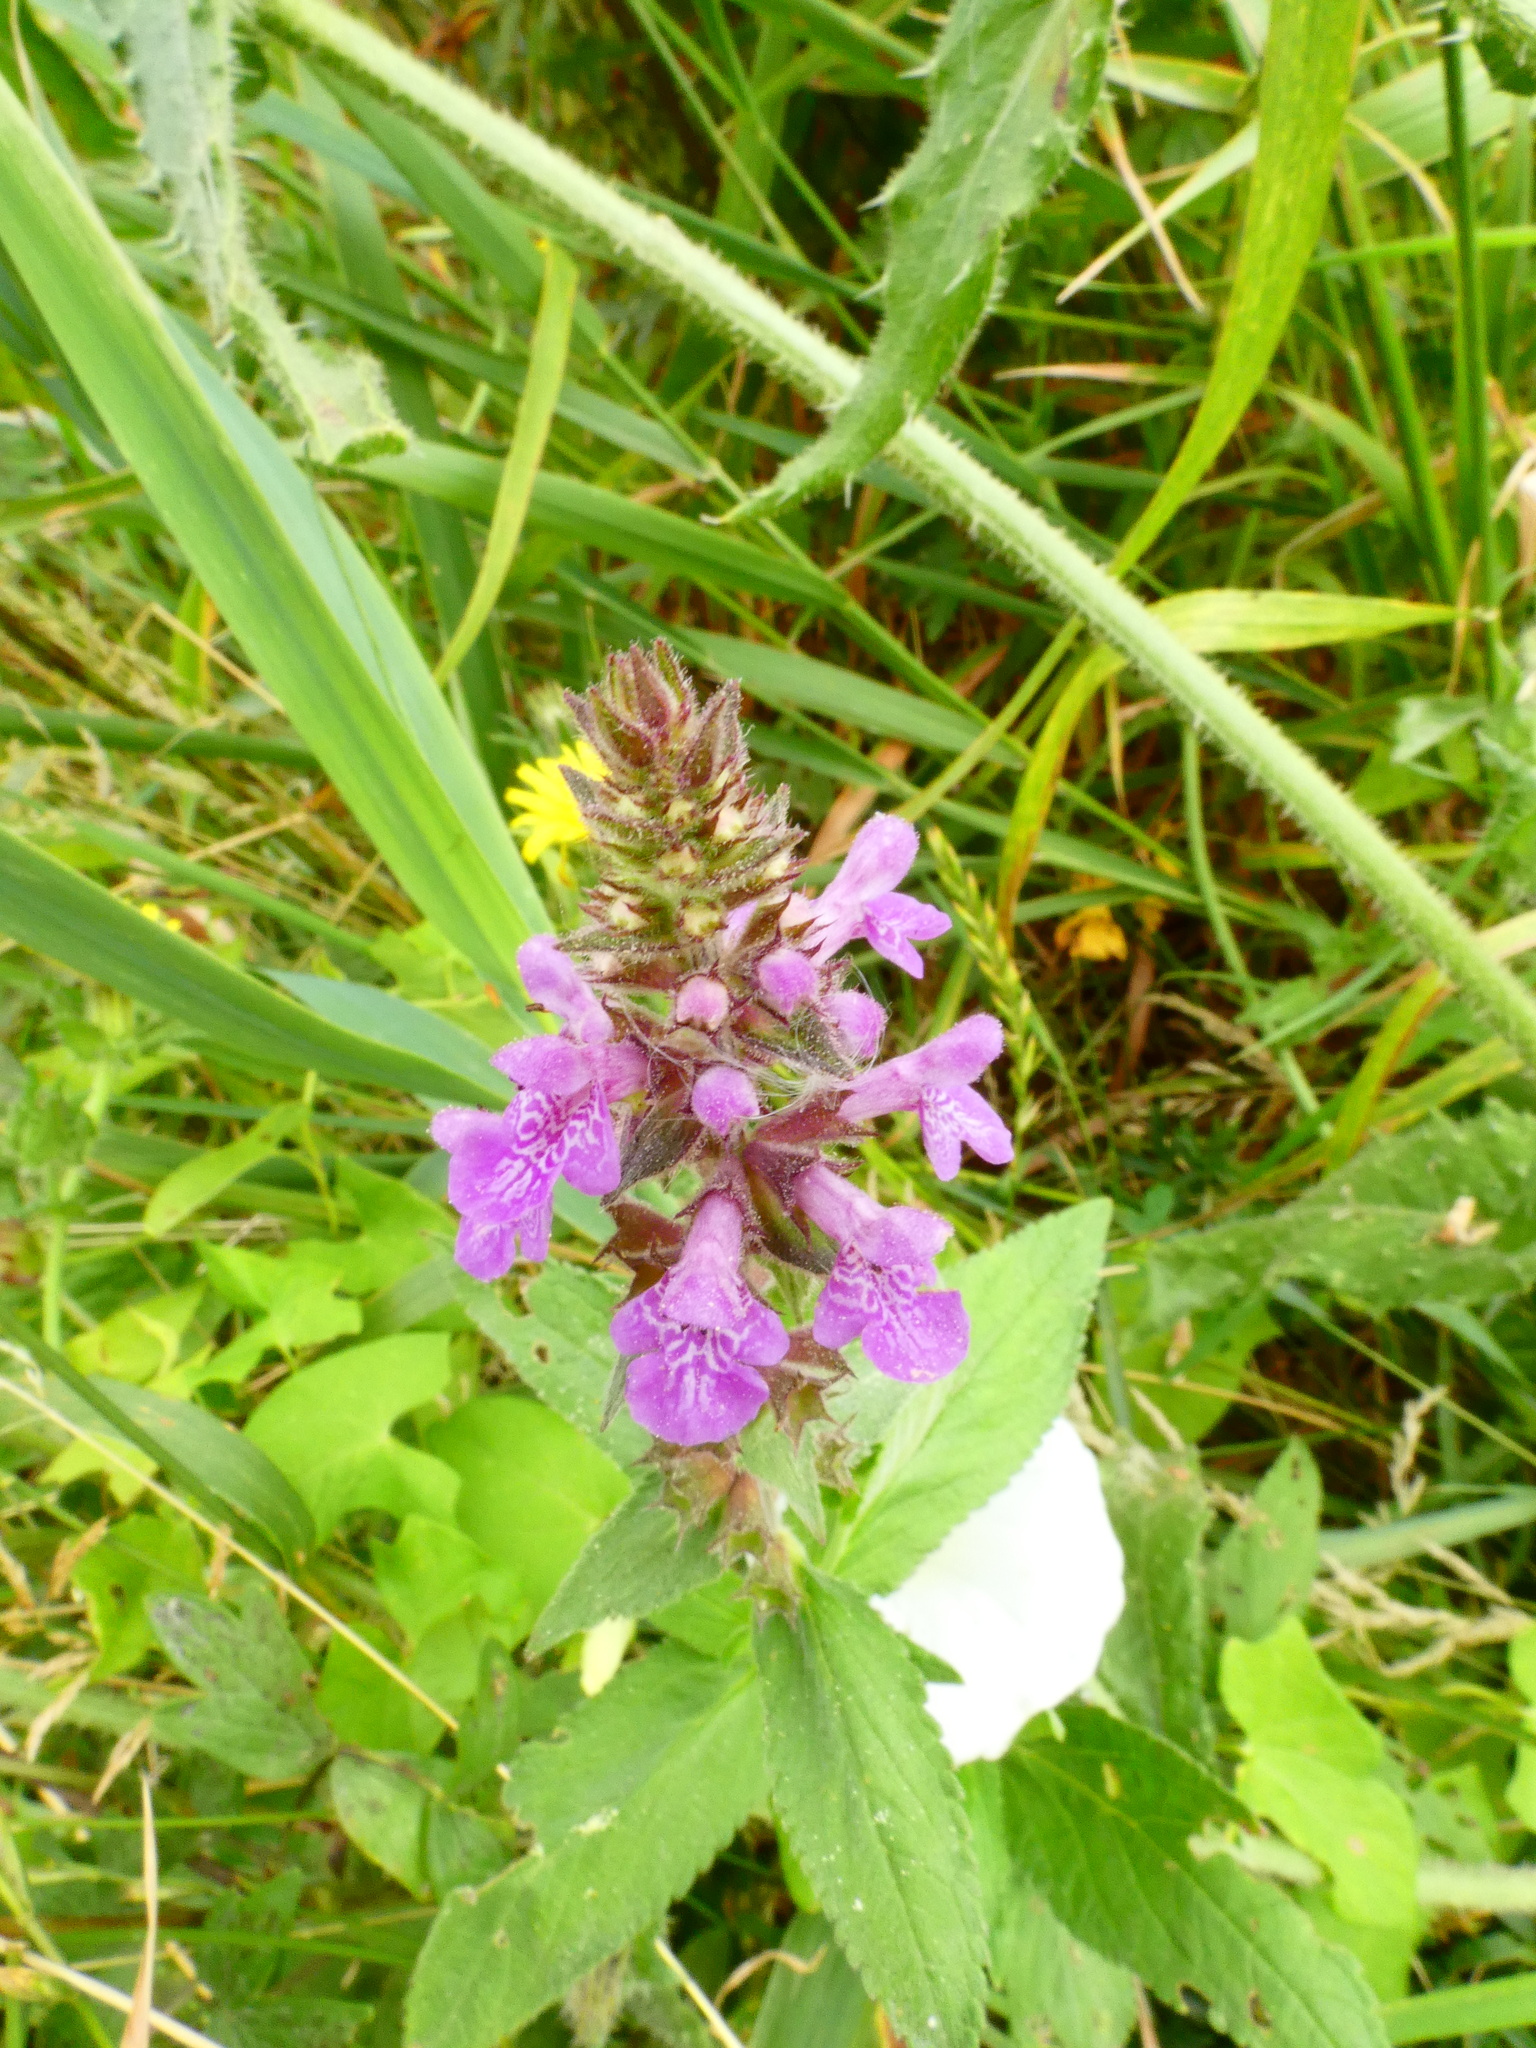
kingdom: Plantae
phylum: Tracheophyta
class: Magnoliopsida
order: Lamiales
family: Lamiaceae
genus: Stachys
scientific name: Stachys palustris
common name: Marsh woundwort
